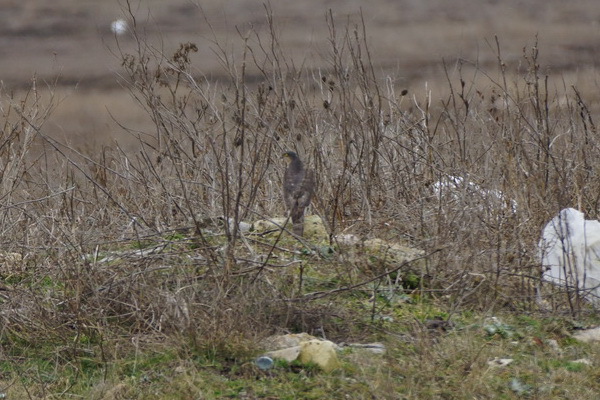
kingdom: Animalia
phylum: Chordata
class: Aves
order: Accipitriformes
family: Accipitridae
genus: Accipiter
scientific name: Accipiter nisus
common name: Eurasian sparrowhawk
